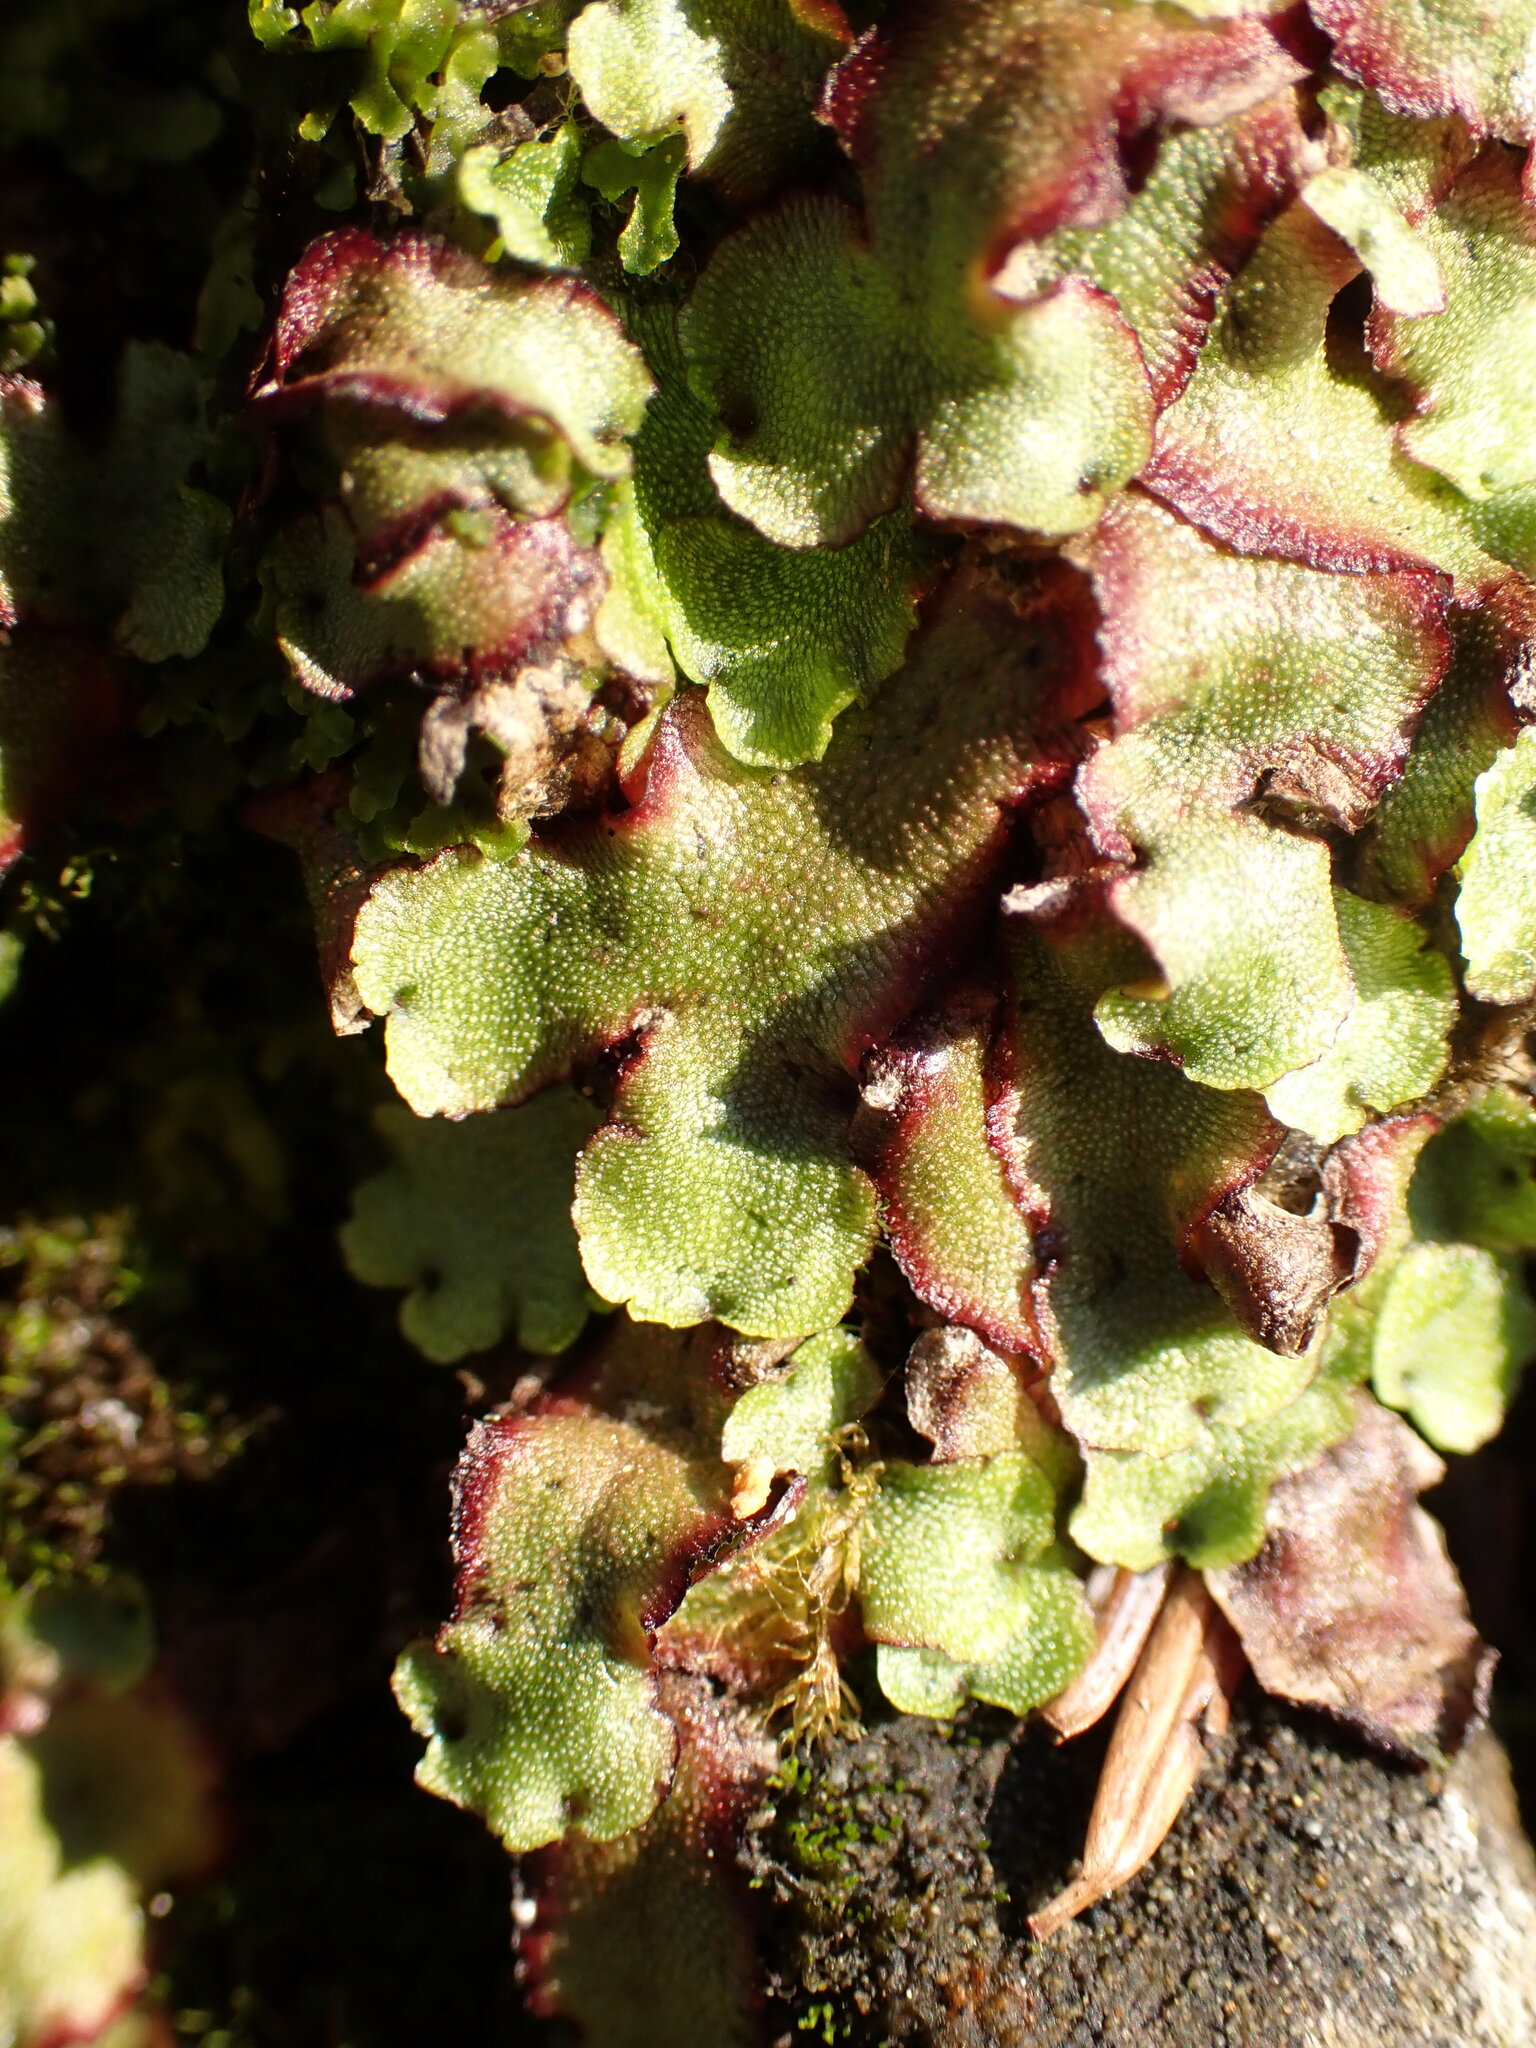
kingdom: Plantae
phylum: Marchantiophyta
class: Marchantiopsida
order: Marchantiales
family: Marchantiaceae
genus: Marchantia
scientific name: Marchantia quadrata
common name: Narrow mushroom-headed liverwort
